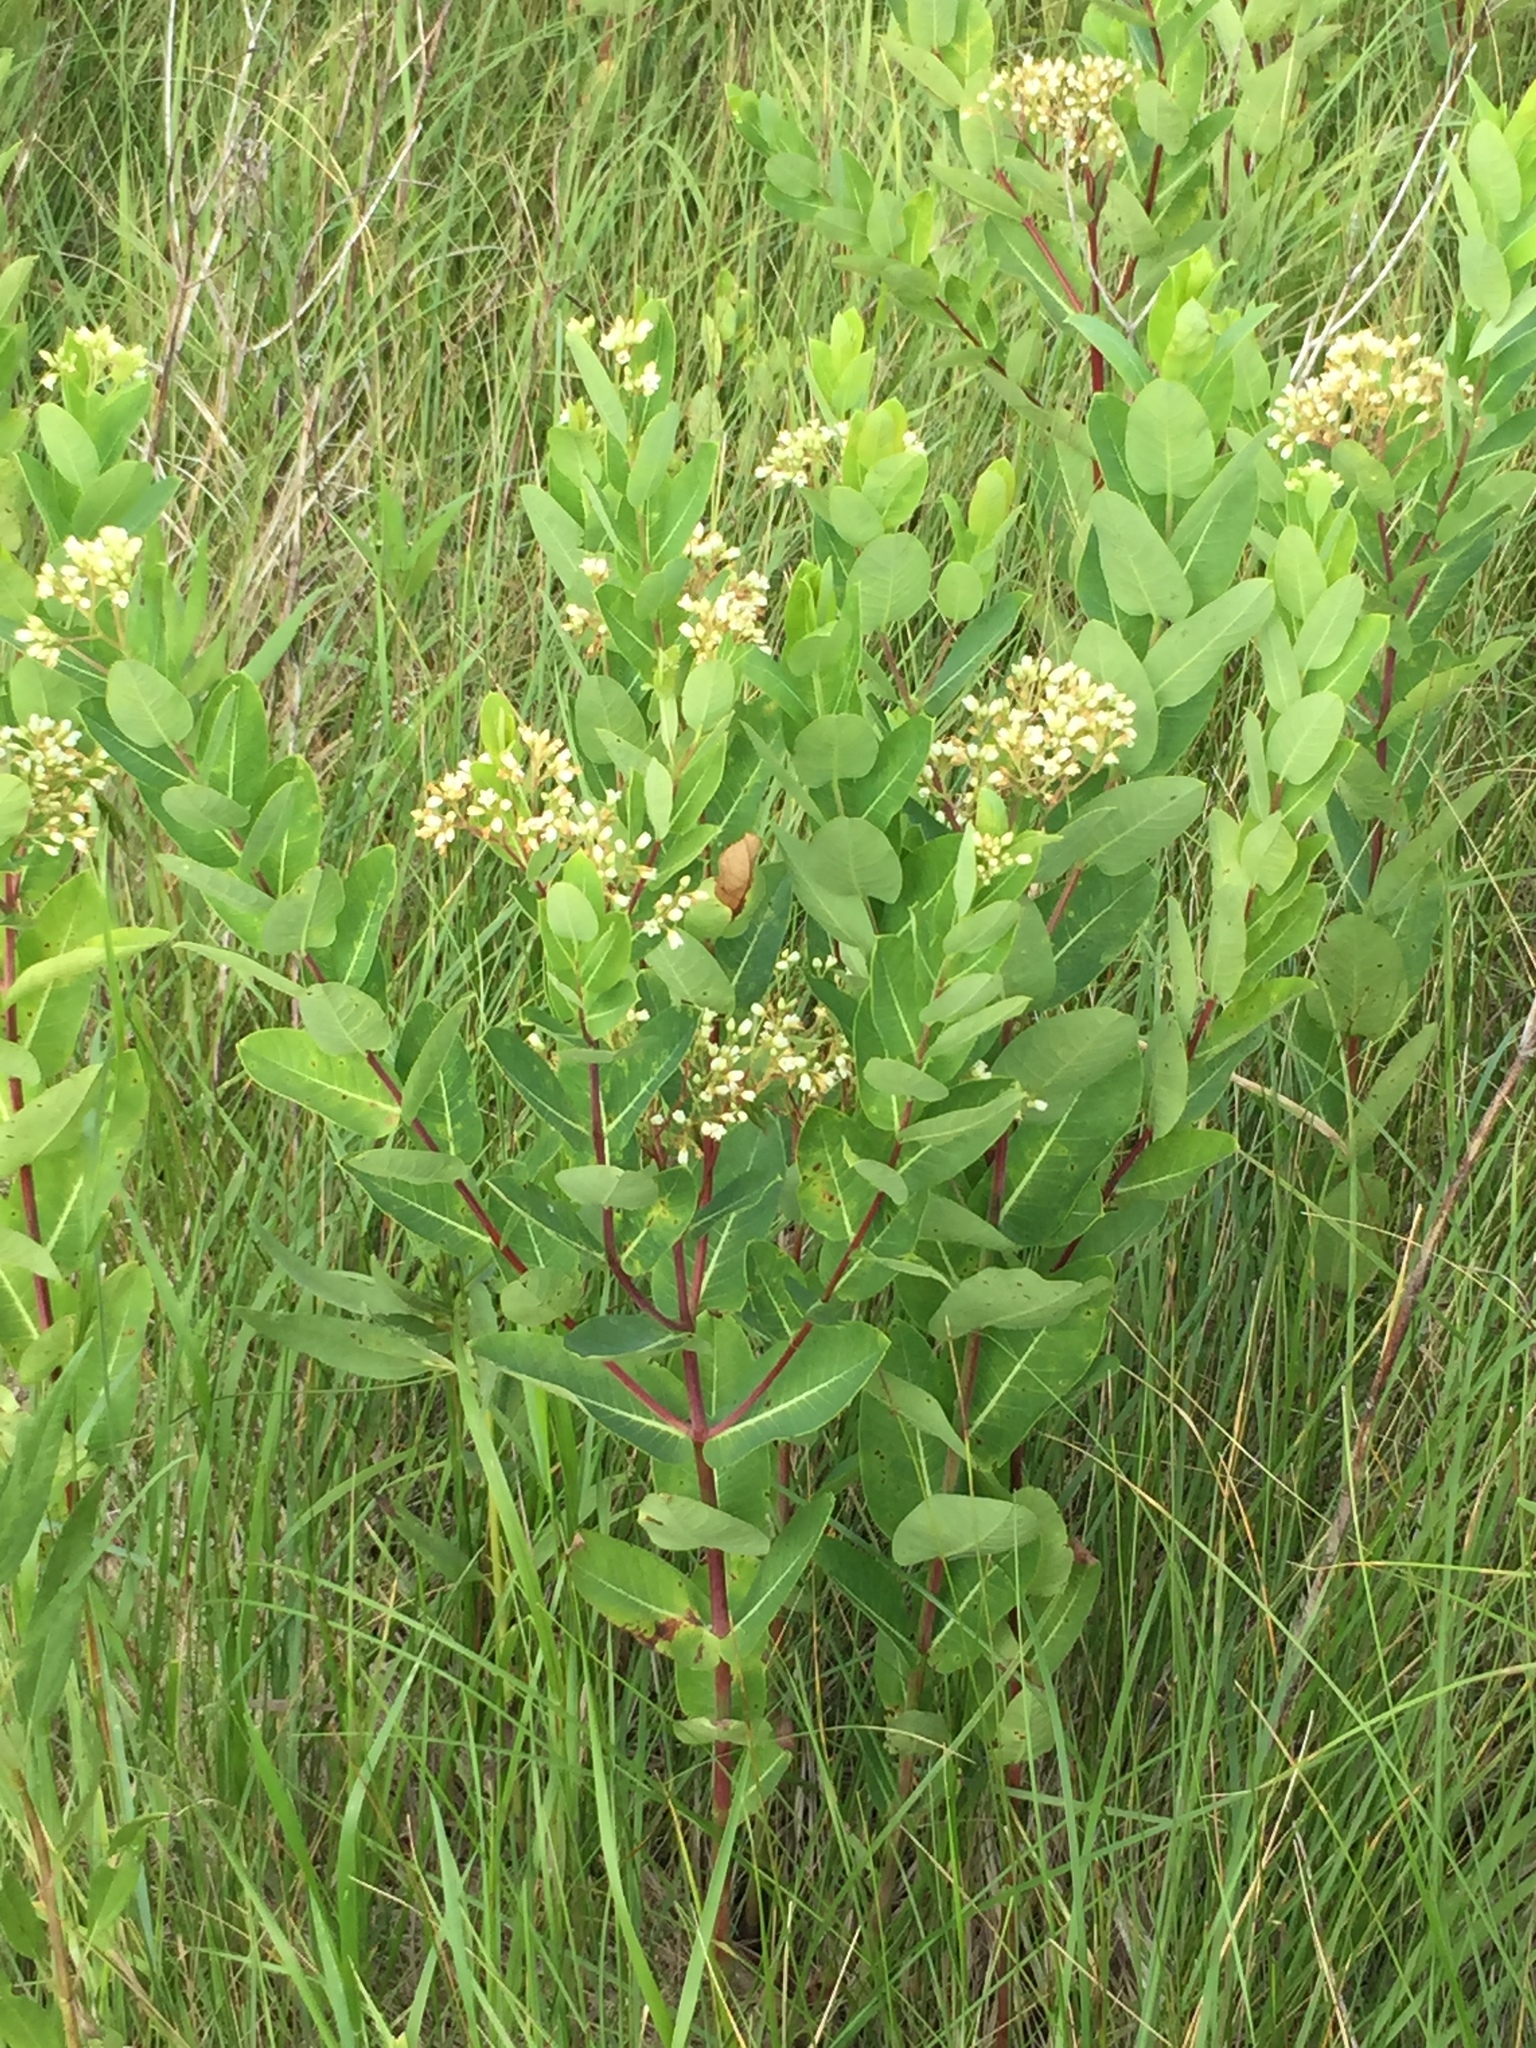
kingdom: Plantae
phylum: Tracheophyta
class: Magnoliopsida
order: Gentianales
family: Apocynaceae
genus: Apocynum
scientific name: Apocynum cannabinum
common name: Hemp dogbane
